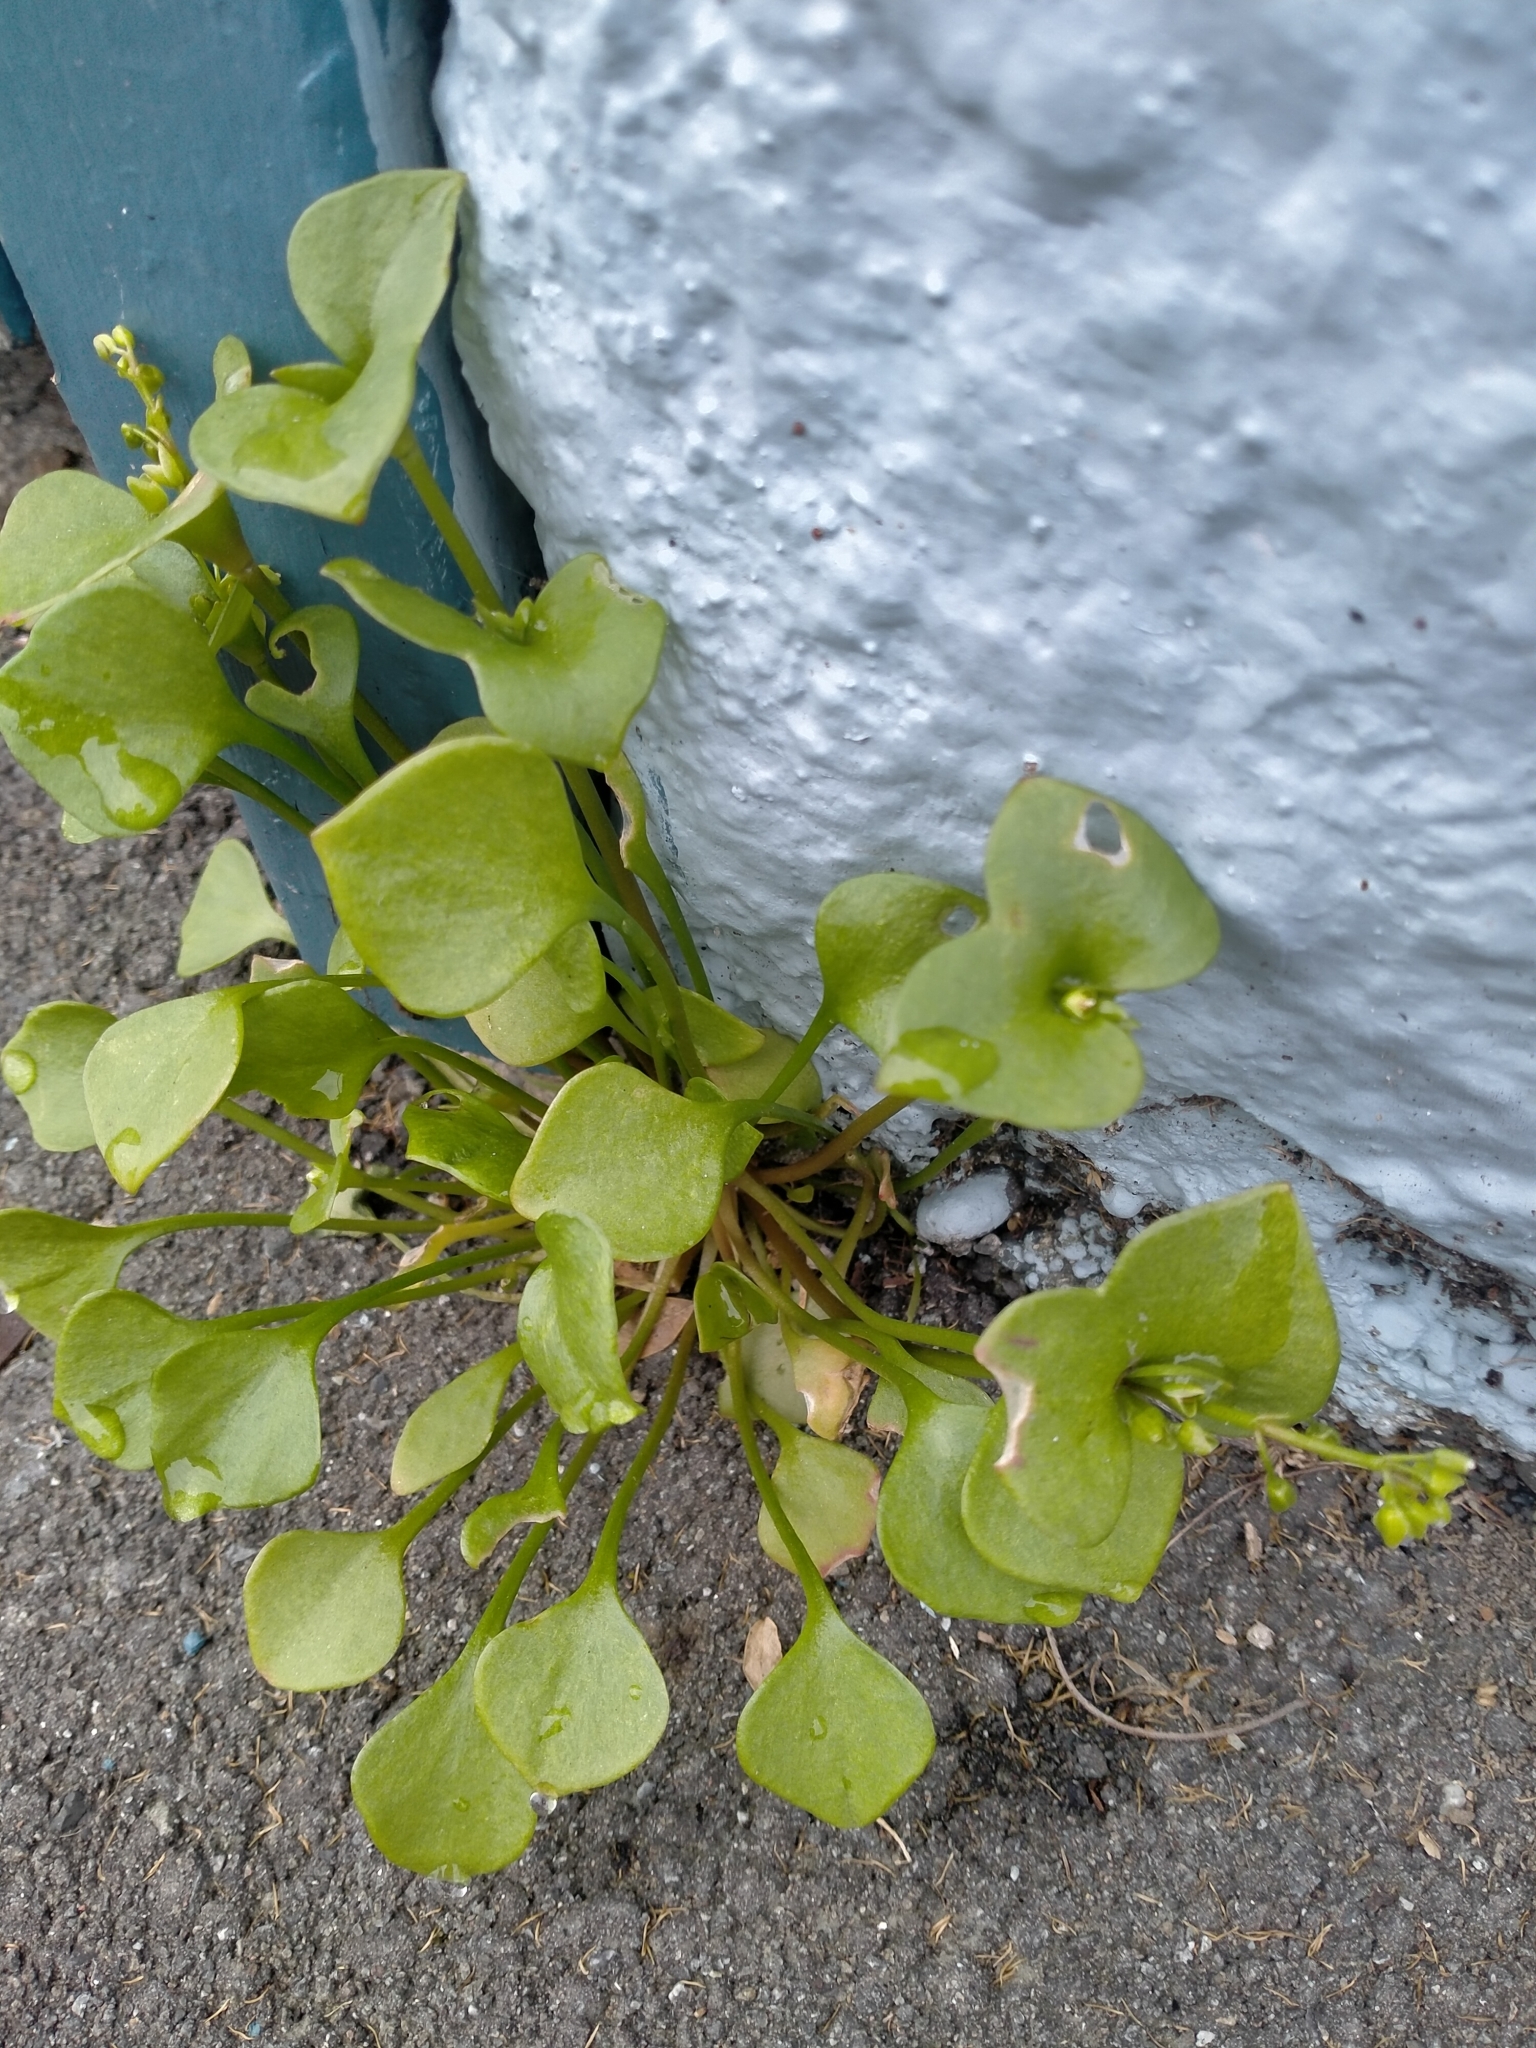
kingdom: Plantae
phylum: Tracheophyta
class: Magnoliopsida
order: Caryophyllales
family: Montiaceae
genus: Claytonia
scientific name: Claytonia perfoliata
